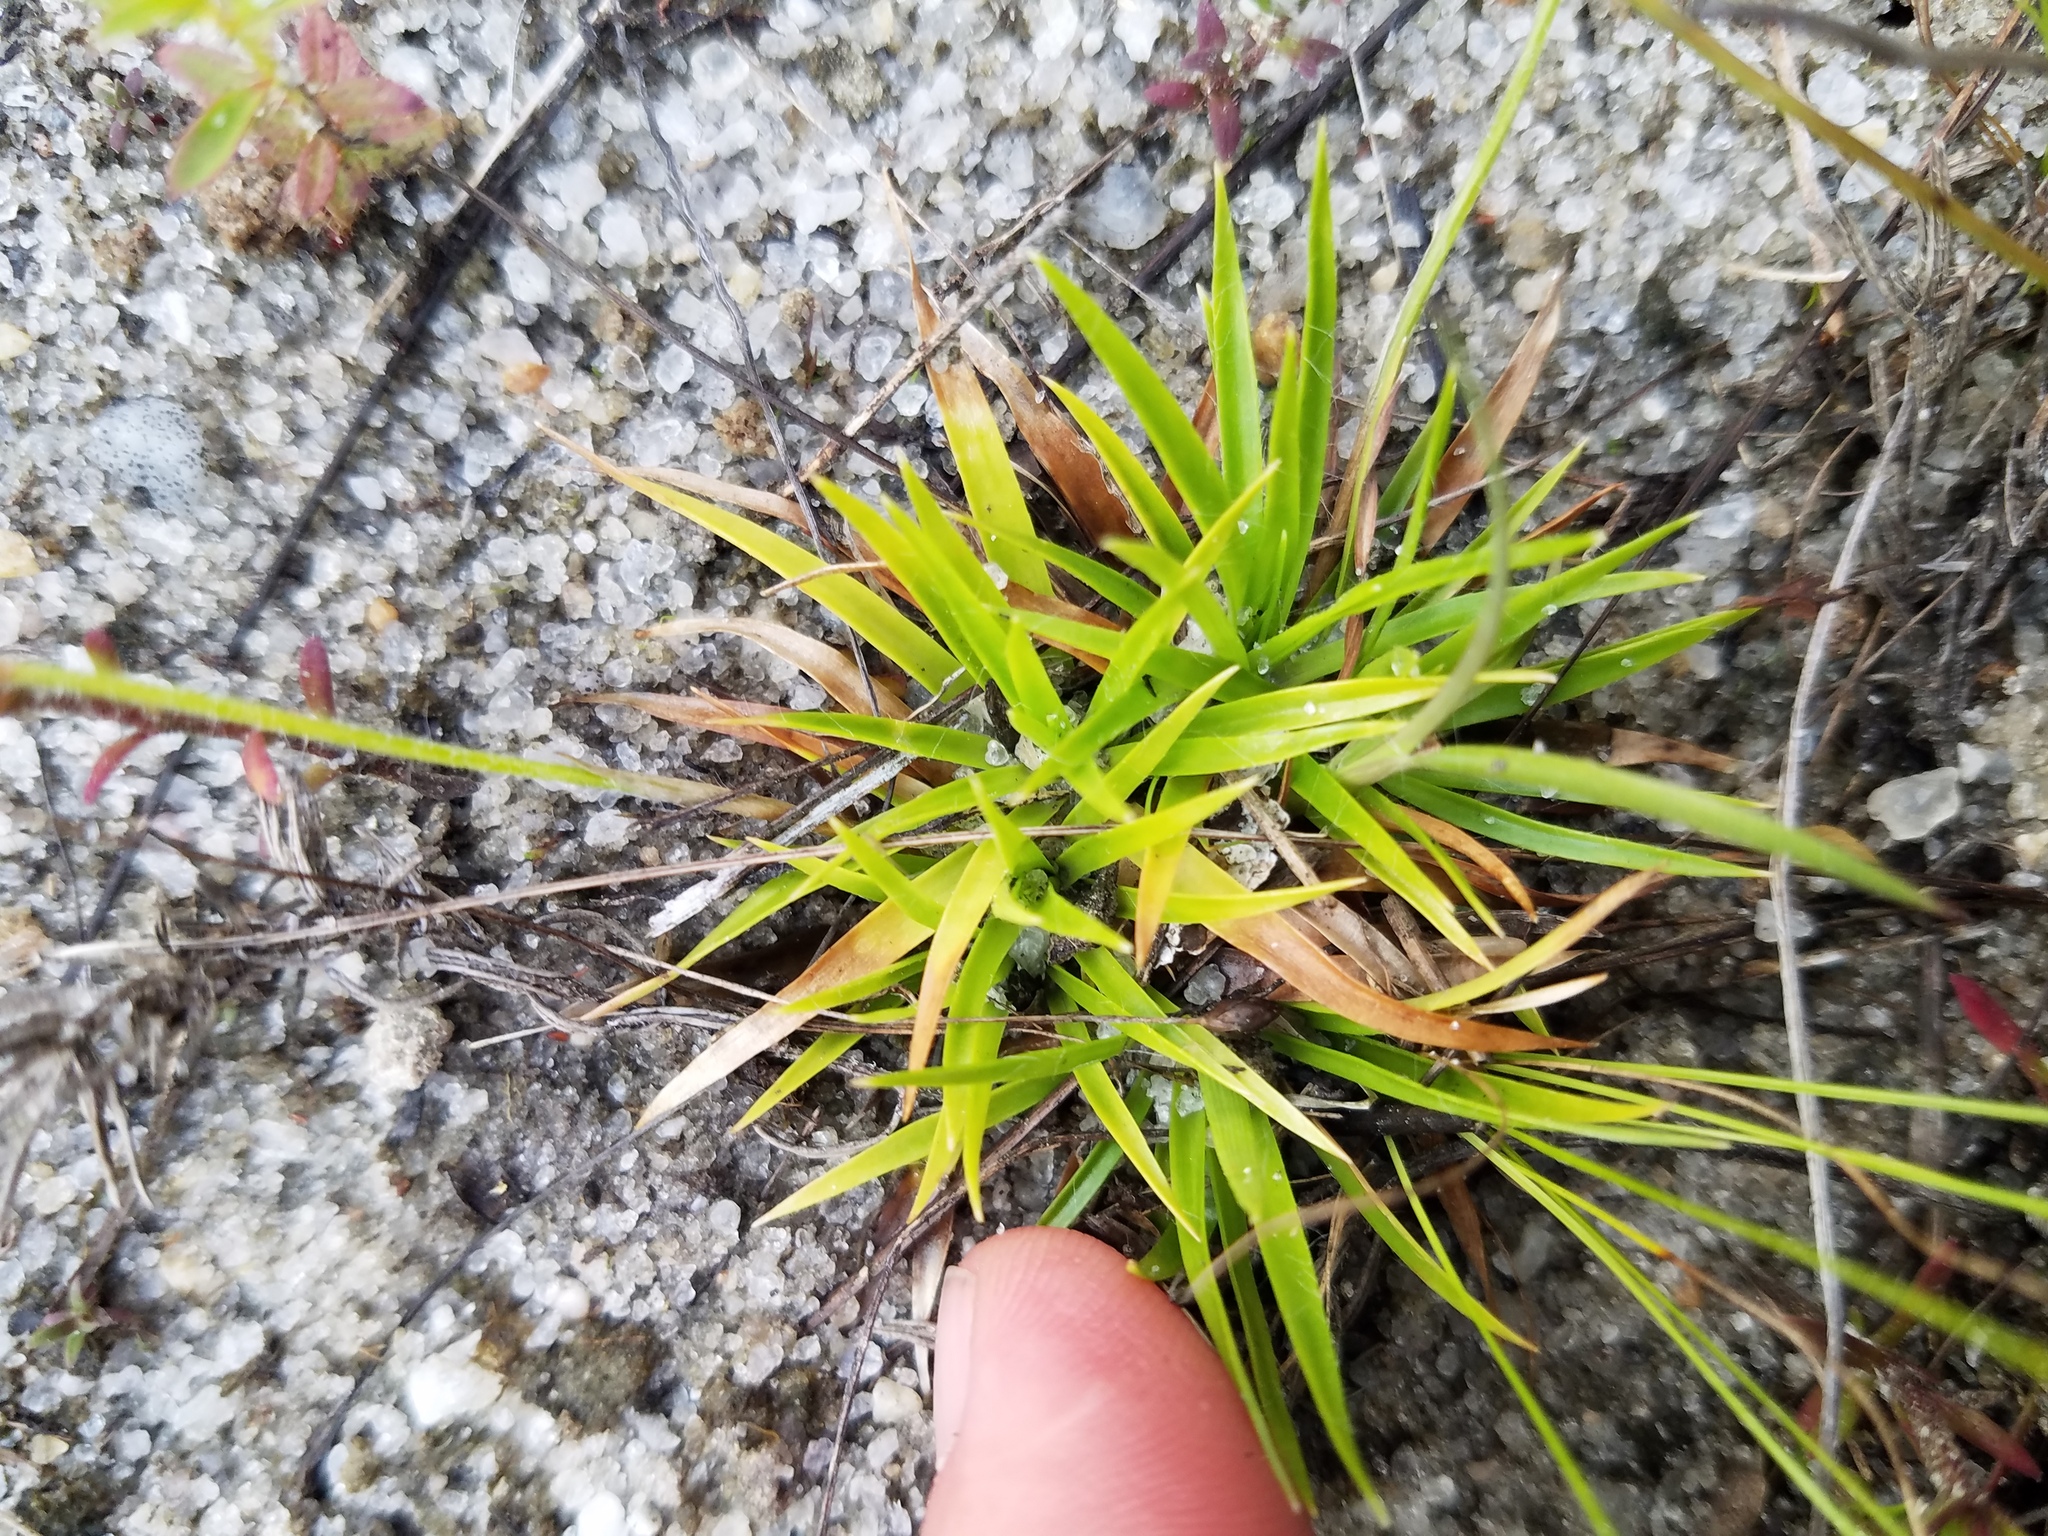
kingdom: Plantae
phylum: Tracheophyta
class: Liliopsida
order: Poales
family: Eriocaulaceae
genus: Paepalanthus
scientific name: Paepalanthus beyrichianus
